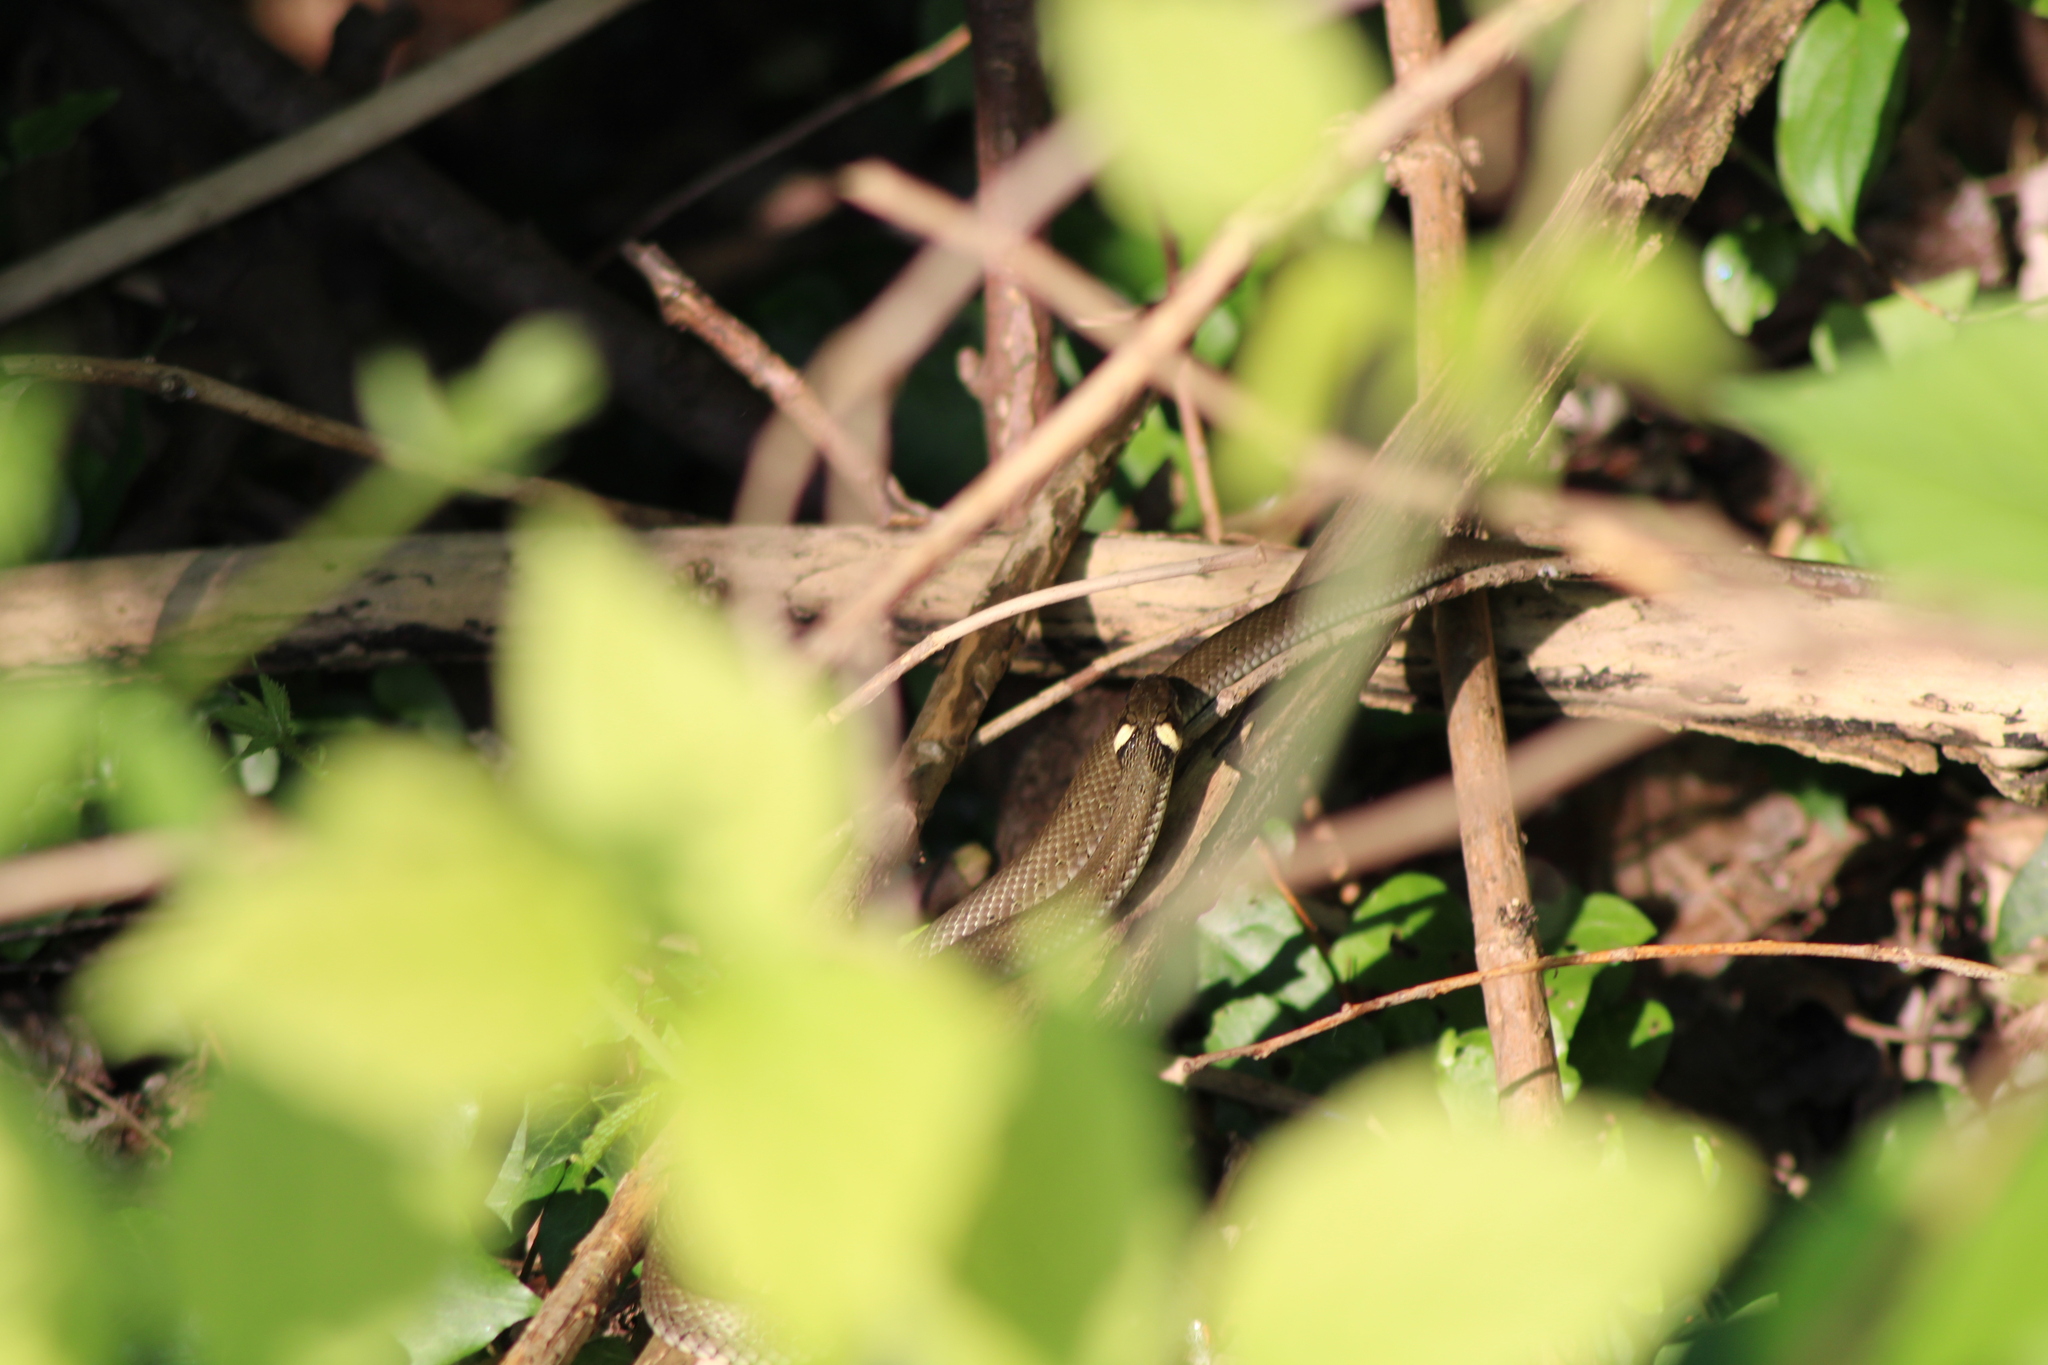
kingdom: Animalia
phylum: Chordata
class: Squamata
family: Colubridae
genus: Natrix
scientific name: Natrix natrix
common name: Grass snake
